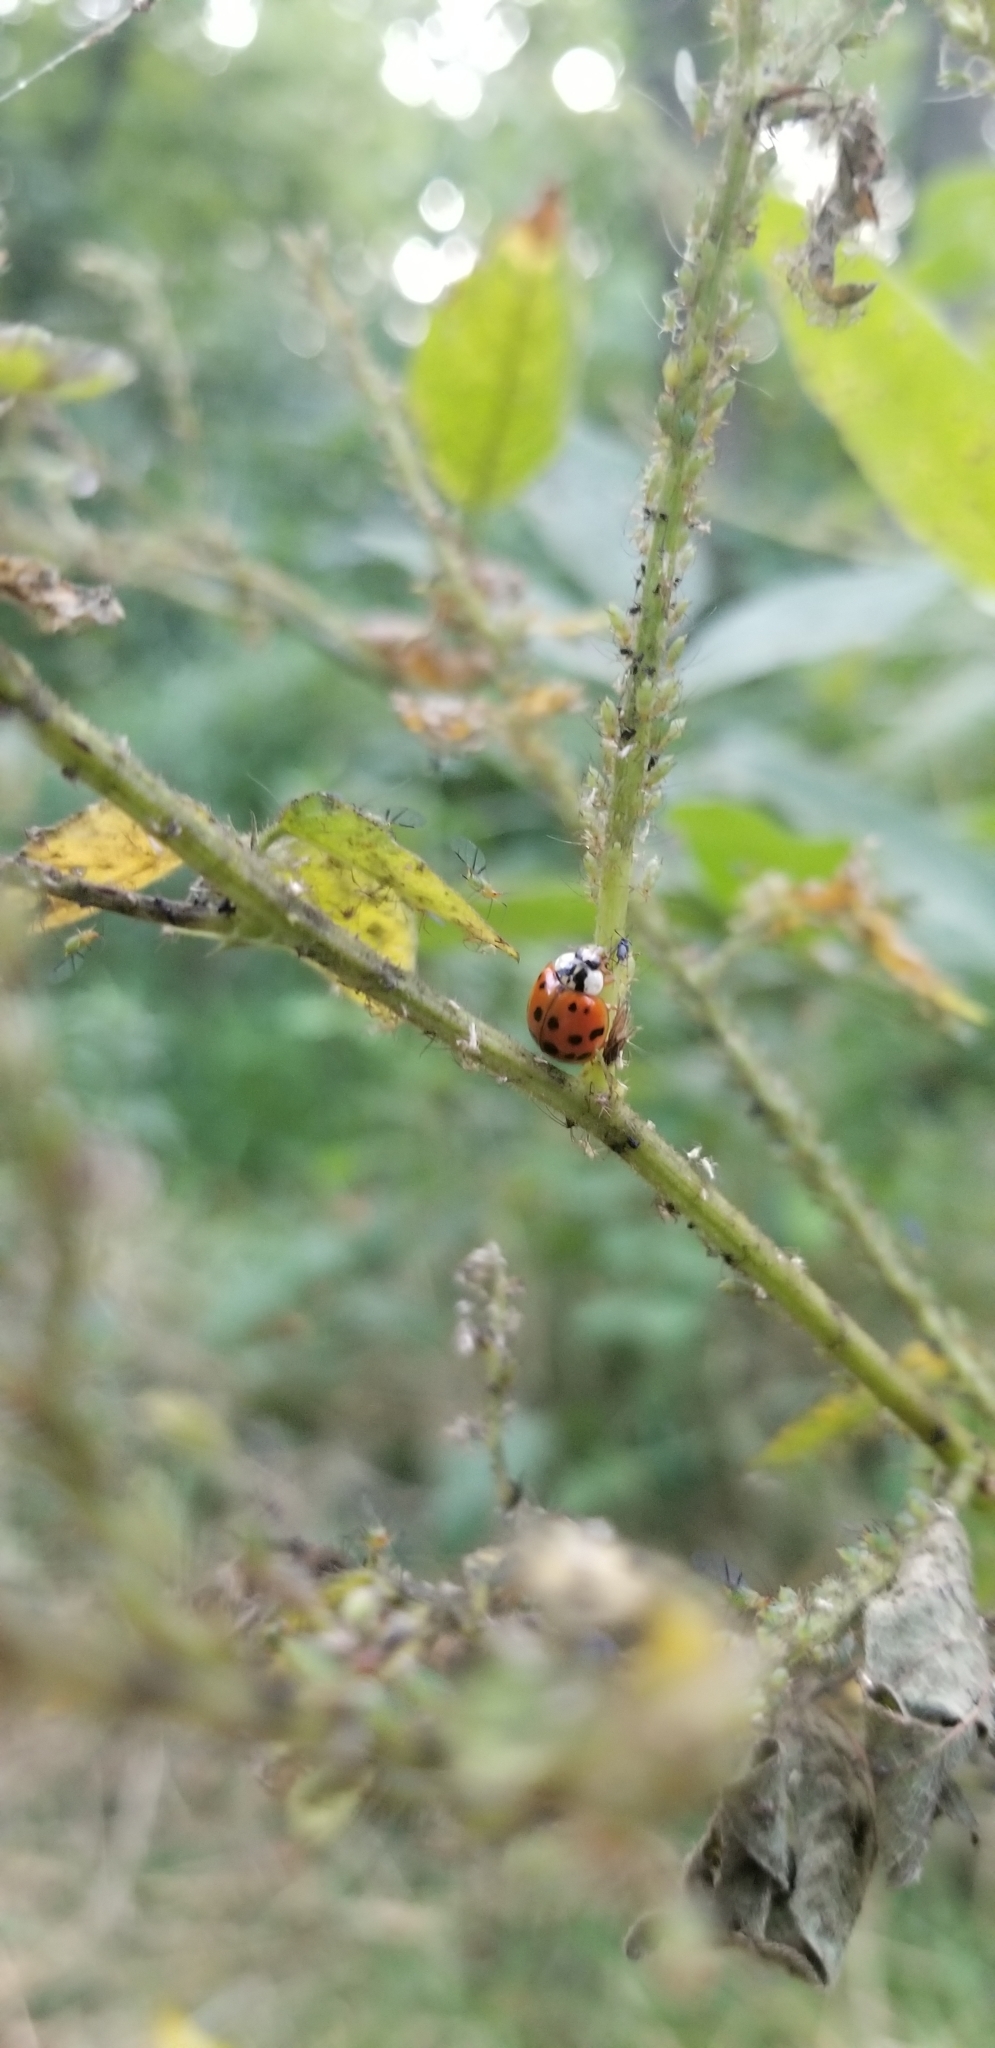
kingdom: Animalia
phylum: Arthropoda
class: Insecta
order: Coleoptera
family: Coccinellidae
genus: Harmonia
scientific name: Harmonia axyridis
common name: Harlequin ladybird
